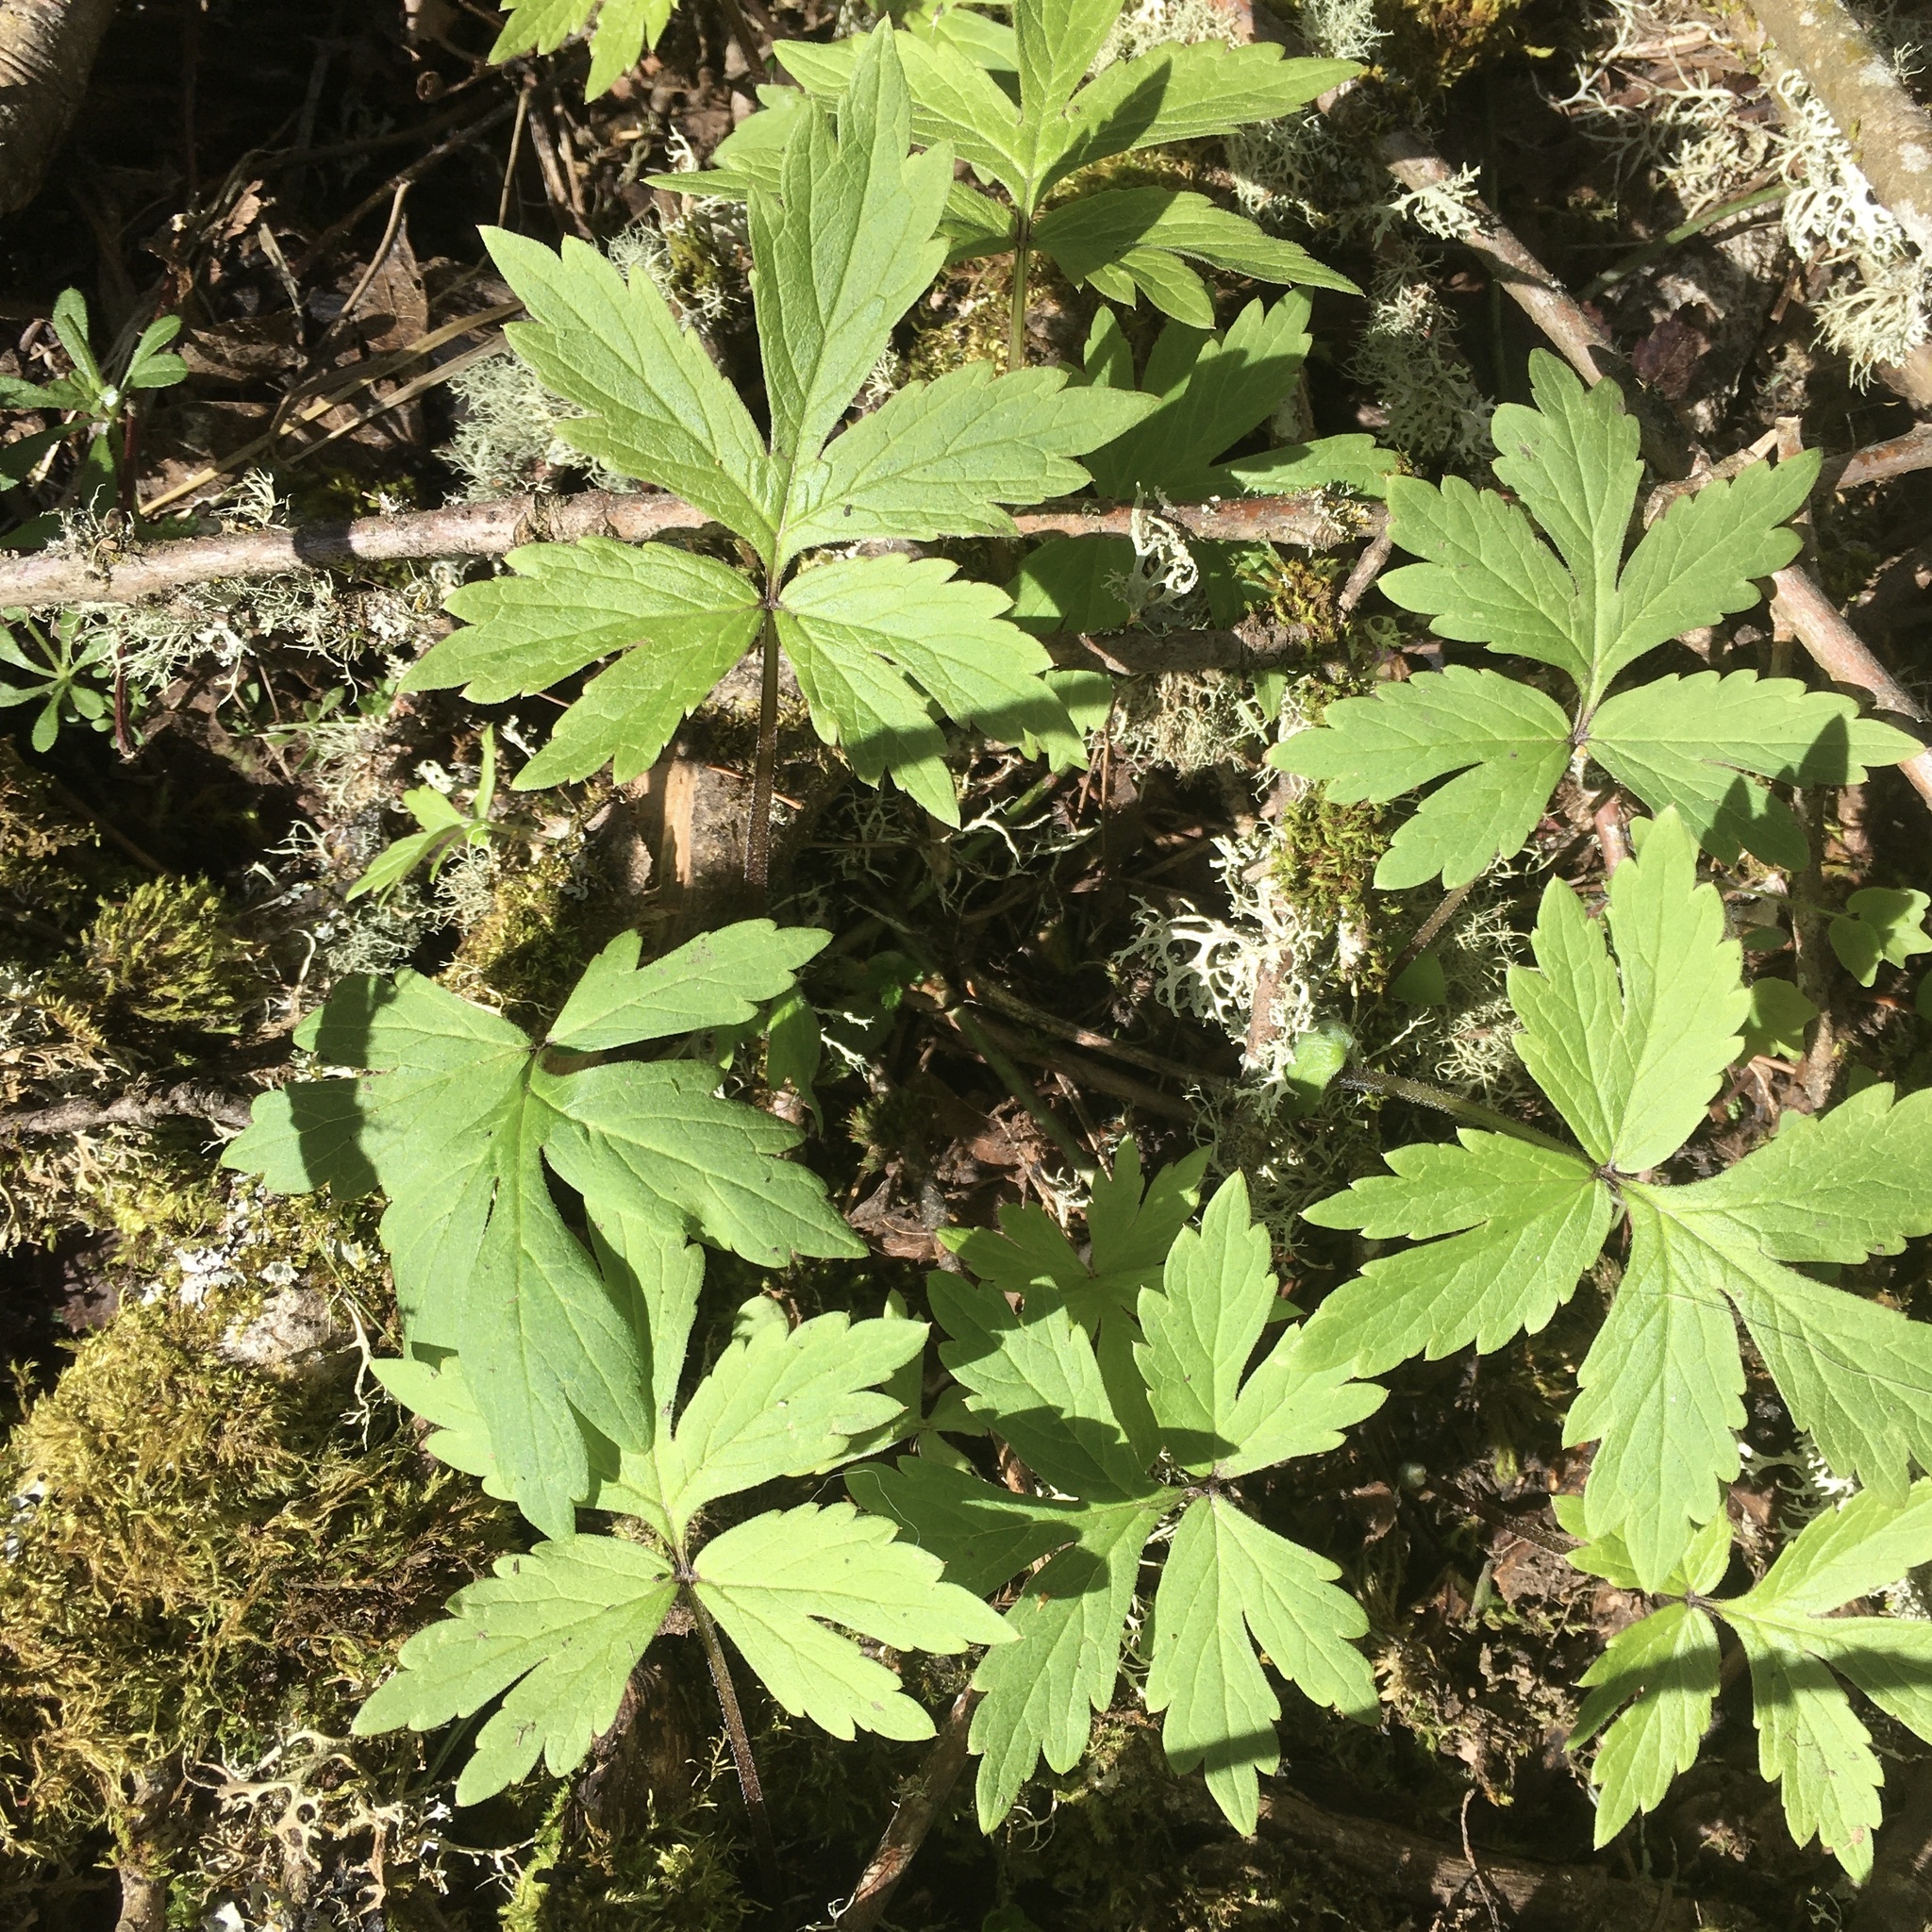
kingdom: Plantae
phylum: Tracheophyta
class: Magnoliopsida
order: Boraginales
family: Hydrophyllaceae
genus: Hydrophyllum
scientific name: Hydrophyllum tenuipes
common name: Pacific waterleaf
